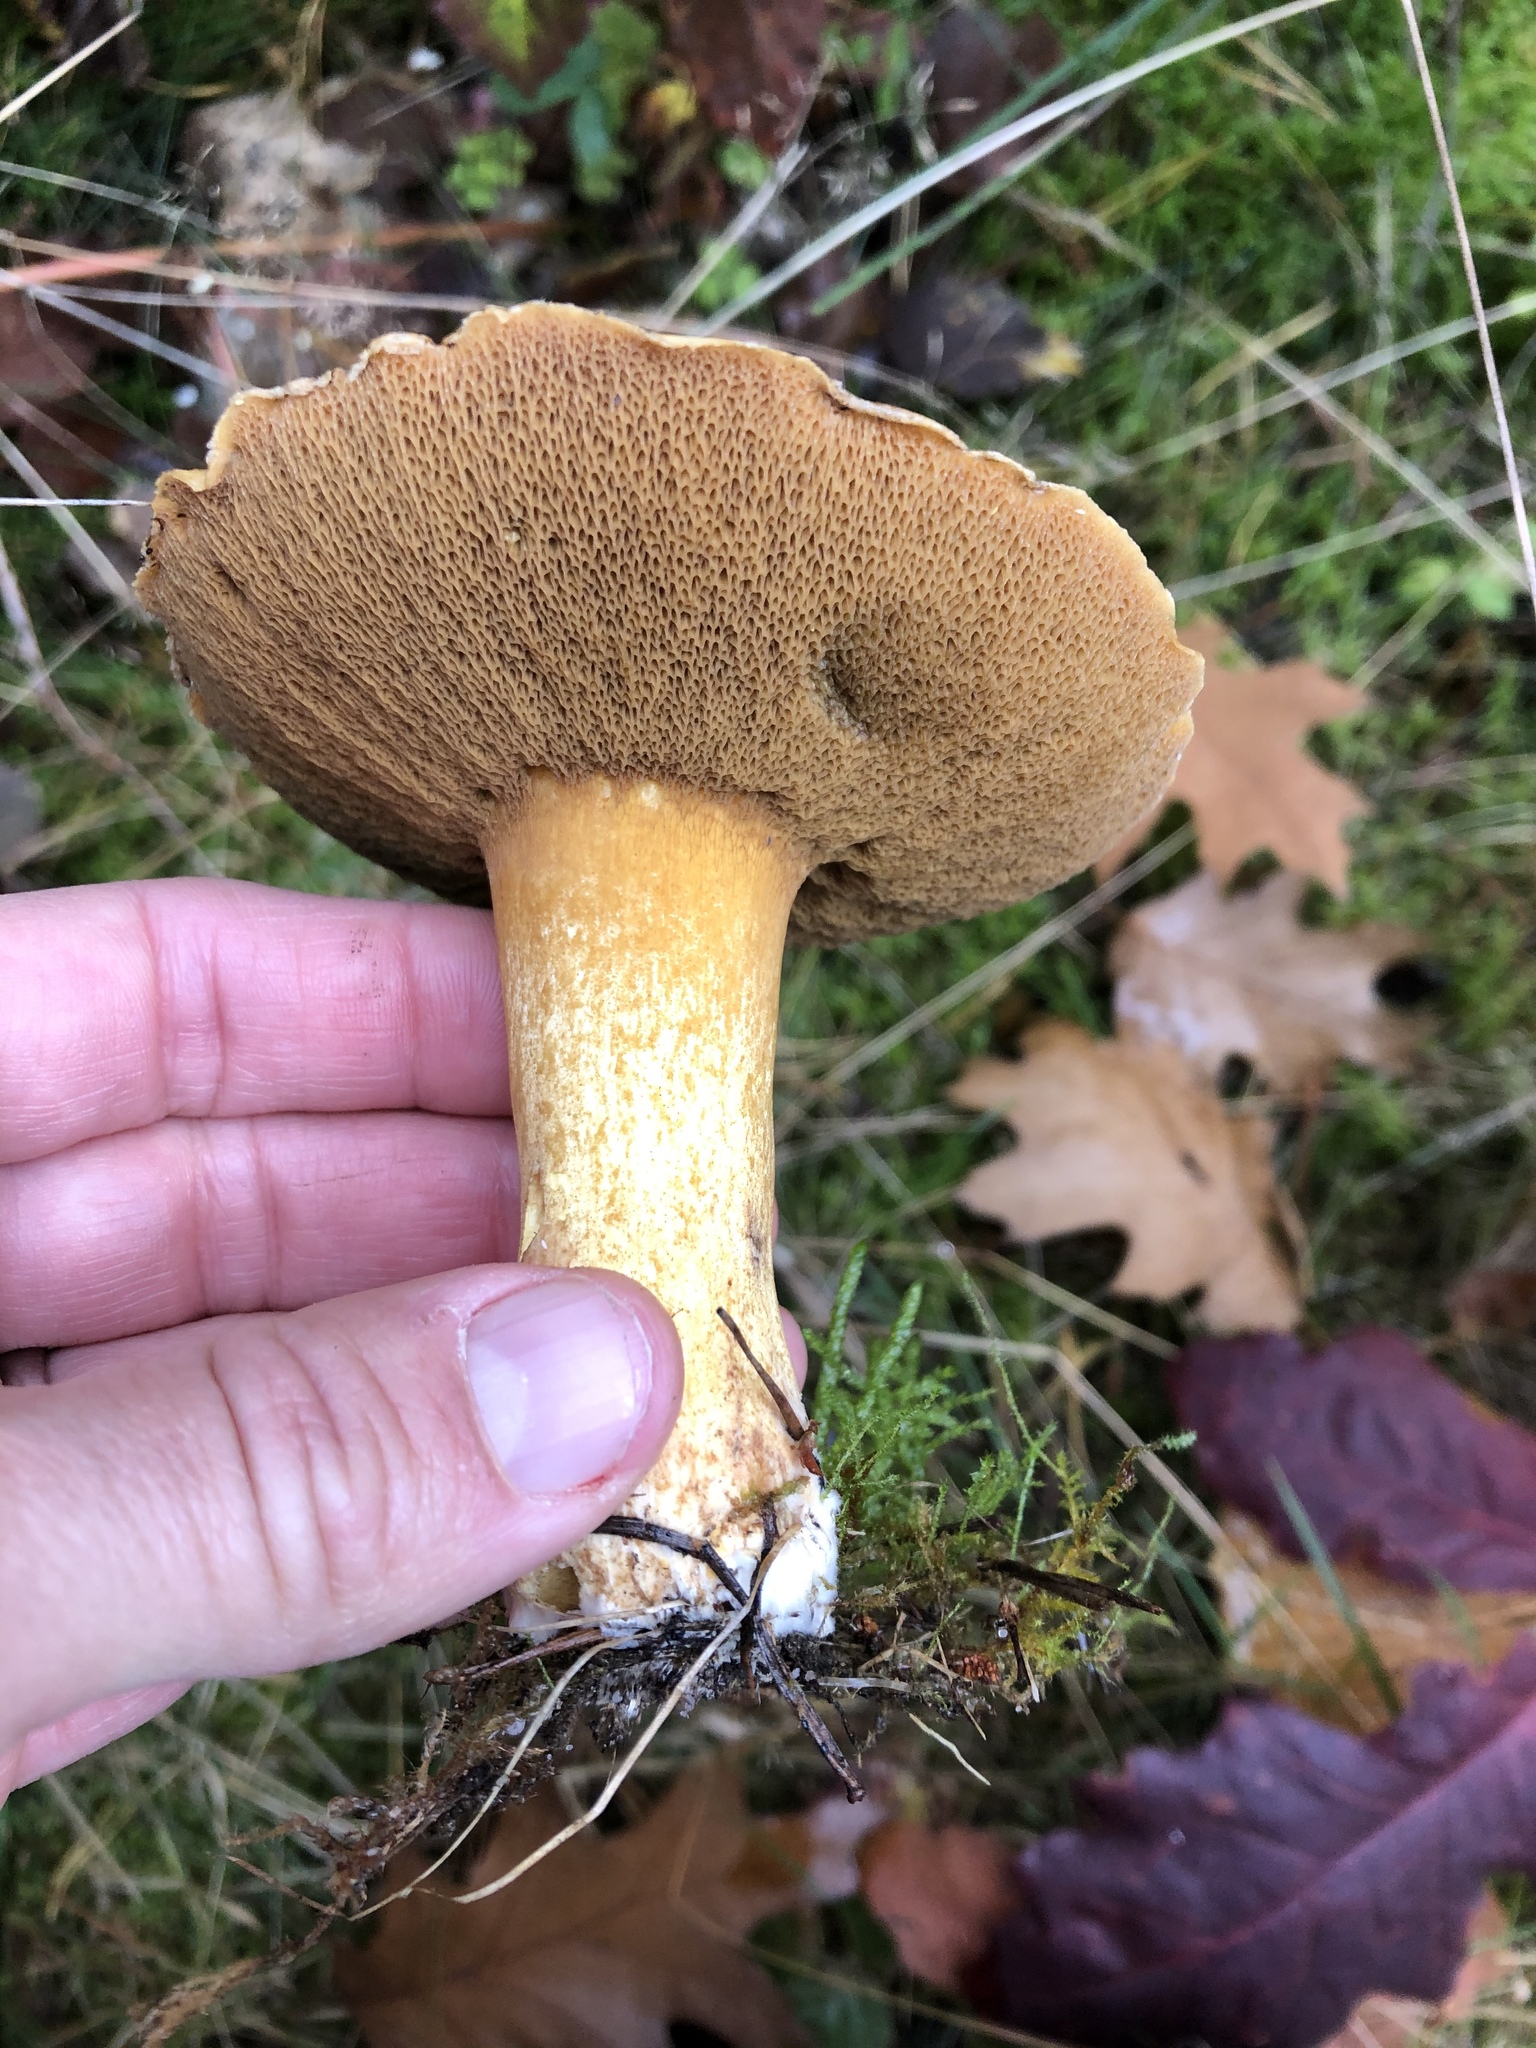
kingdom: Fungi
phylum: Basidiomycota
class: Agaricomycetes
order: Boletales
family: Suillaceae
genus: Suillus
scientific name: Suillus variegatus
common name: Velvet bolete
